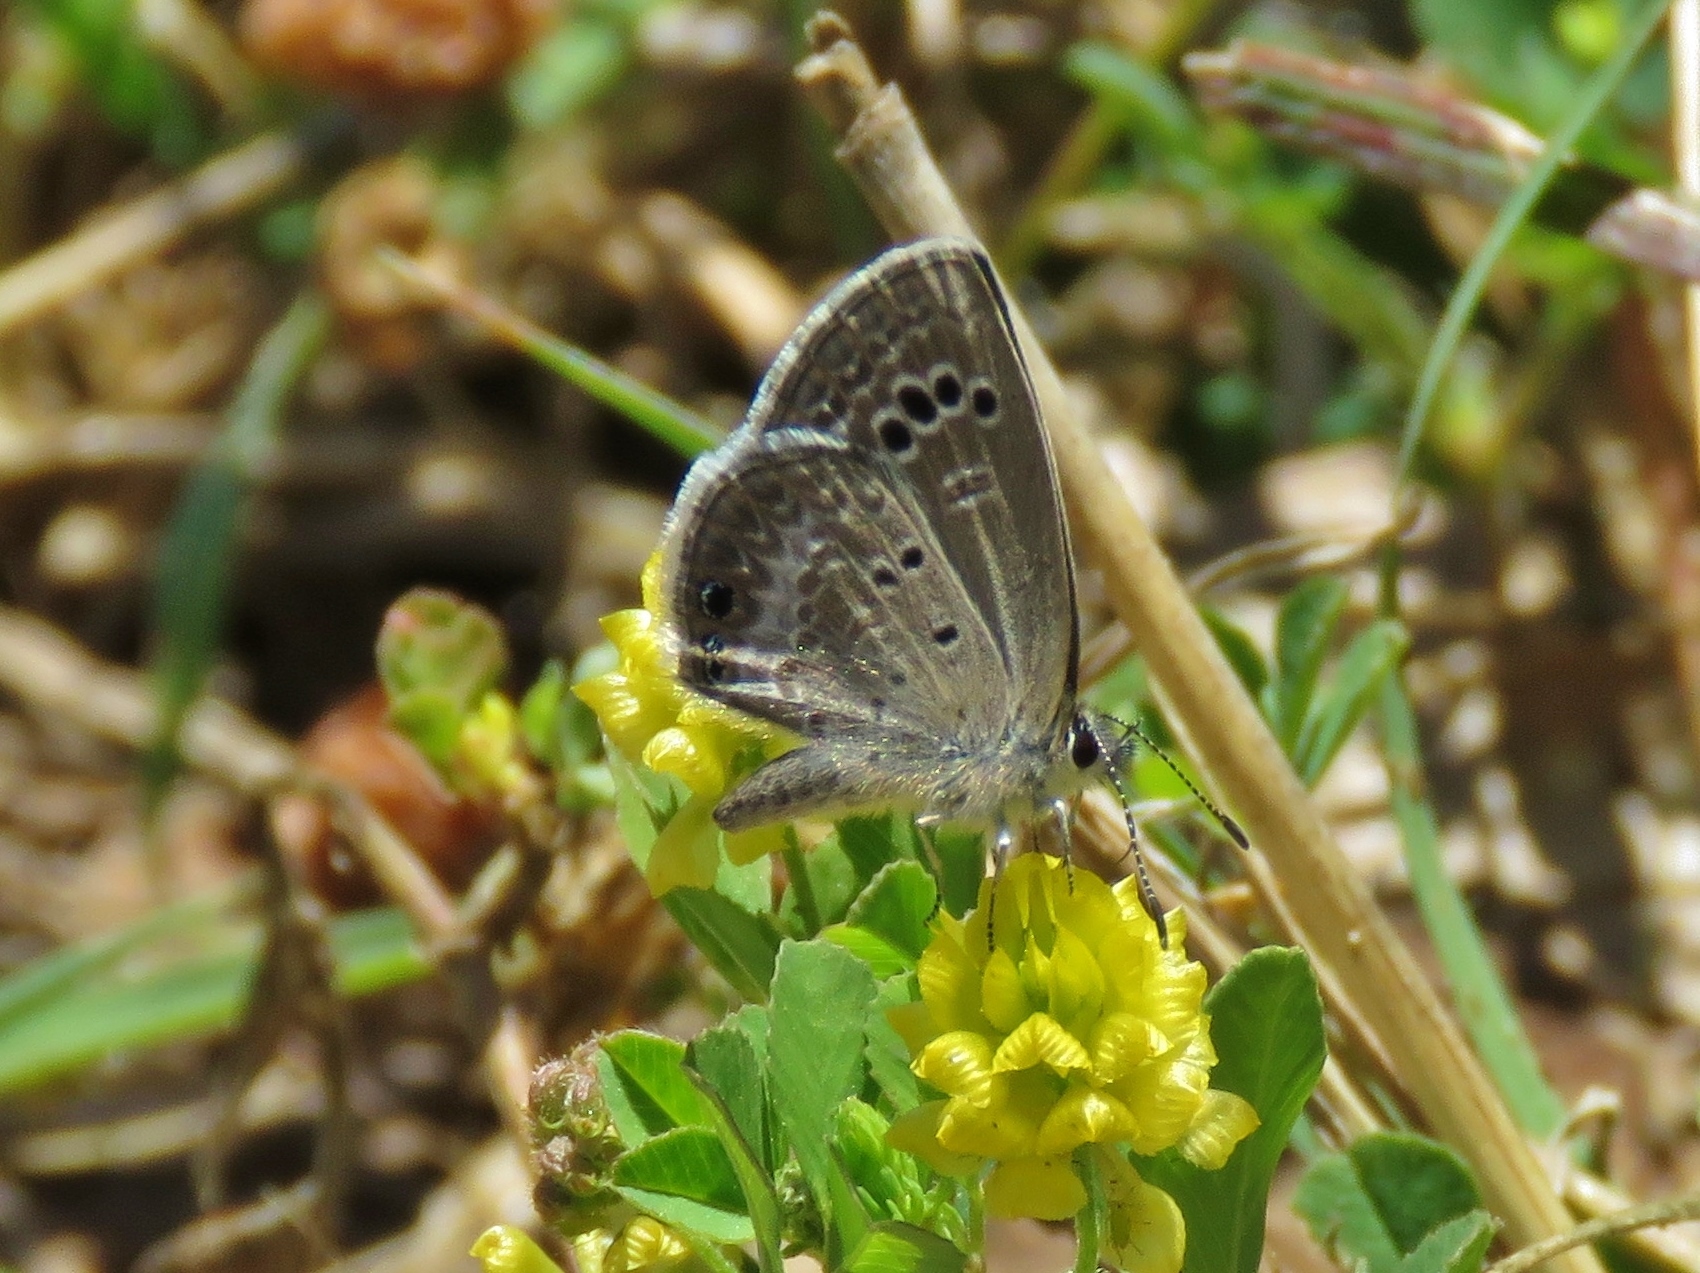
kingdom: Animalia
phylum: Arthropoda
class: Insecta
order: Lepidoptera
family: Lycaenidae
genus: Echinargus
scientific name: Echinargus isola
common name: Reakirt's blue
